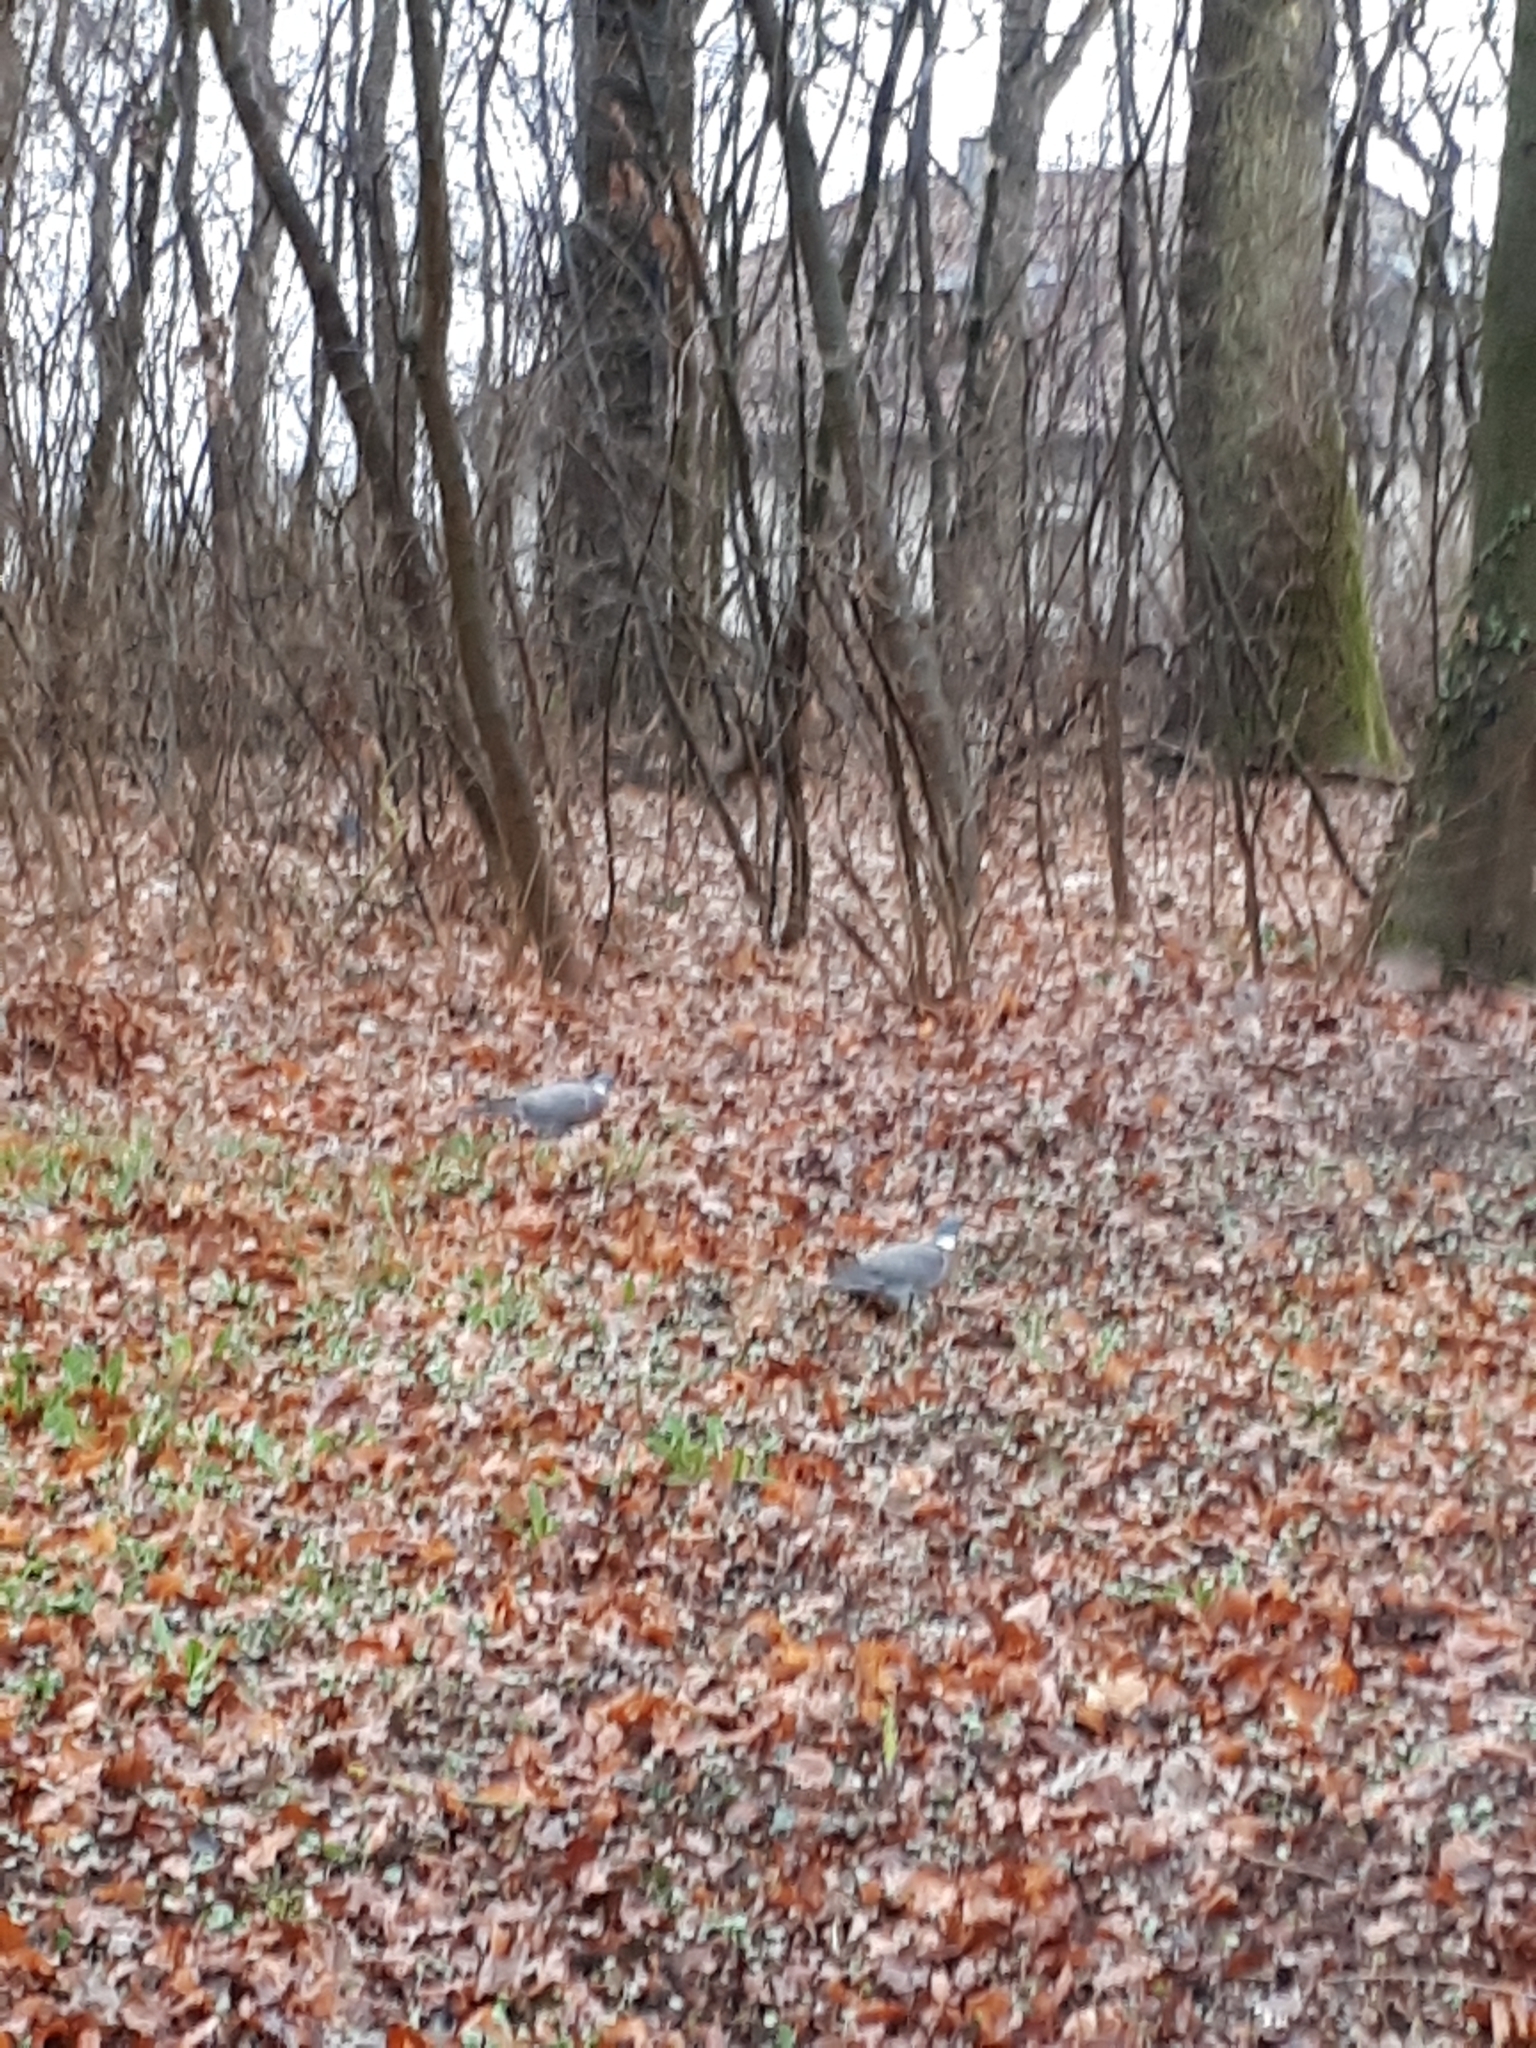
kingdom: Animalia
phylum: Chordata
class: Aves
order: Columbiformes
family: Columbidae
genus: Columba
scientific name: Columba palumbus
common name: Common wood pigeon
